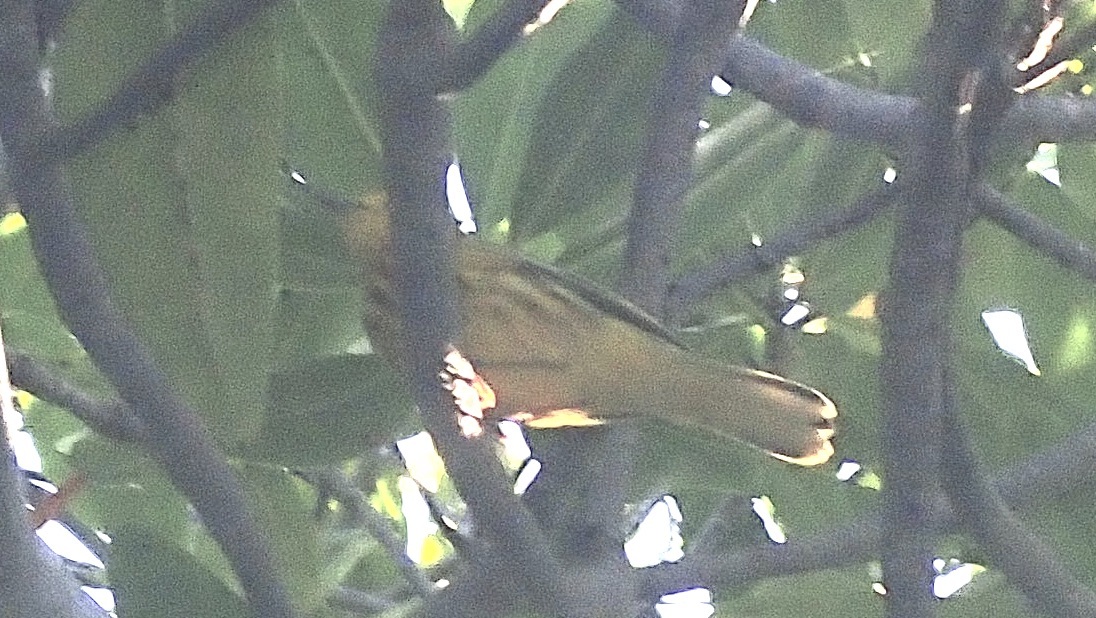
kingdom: Animalia
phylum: Chordata
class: Aves
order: Passeriformes
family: Parulidae
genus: Setophaga
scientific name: Setophaga petechia
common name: Yellow warbler
